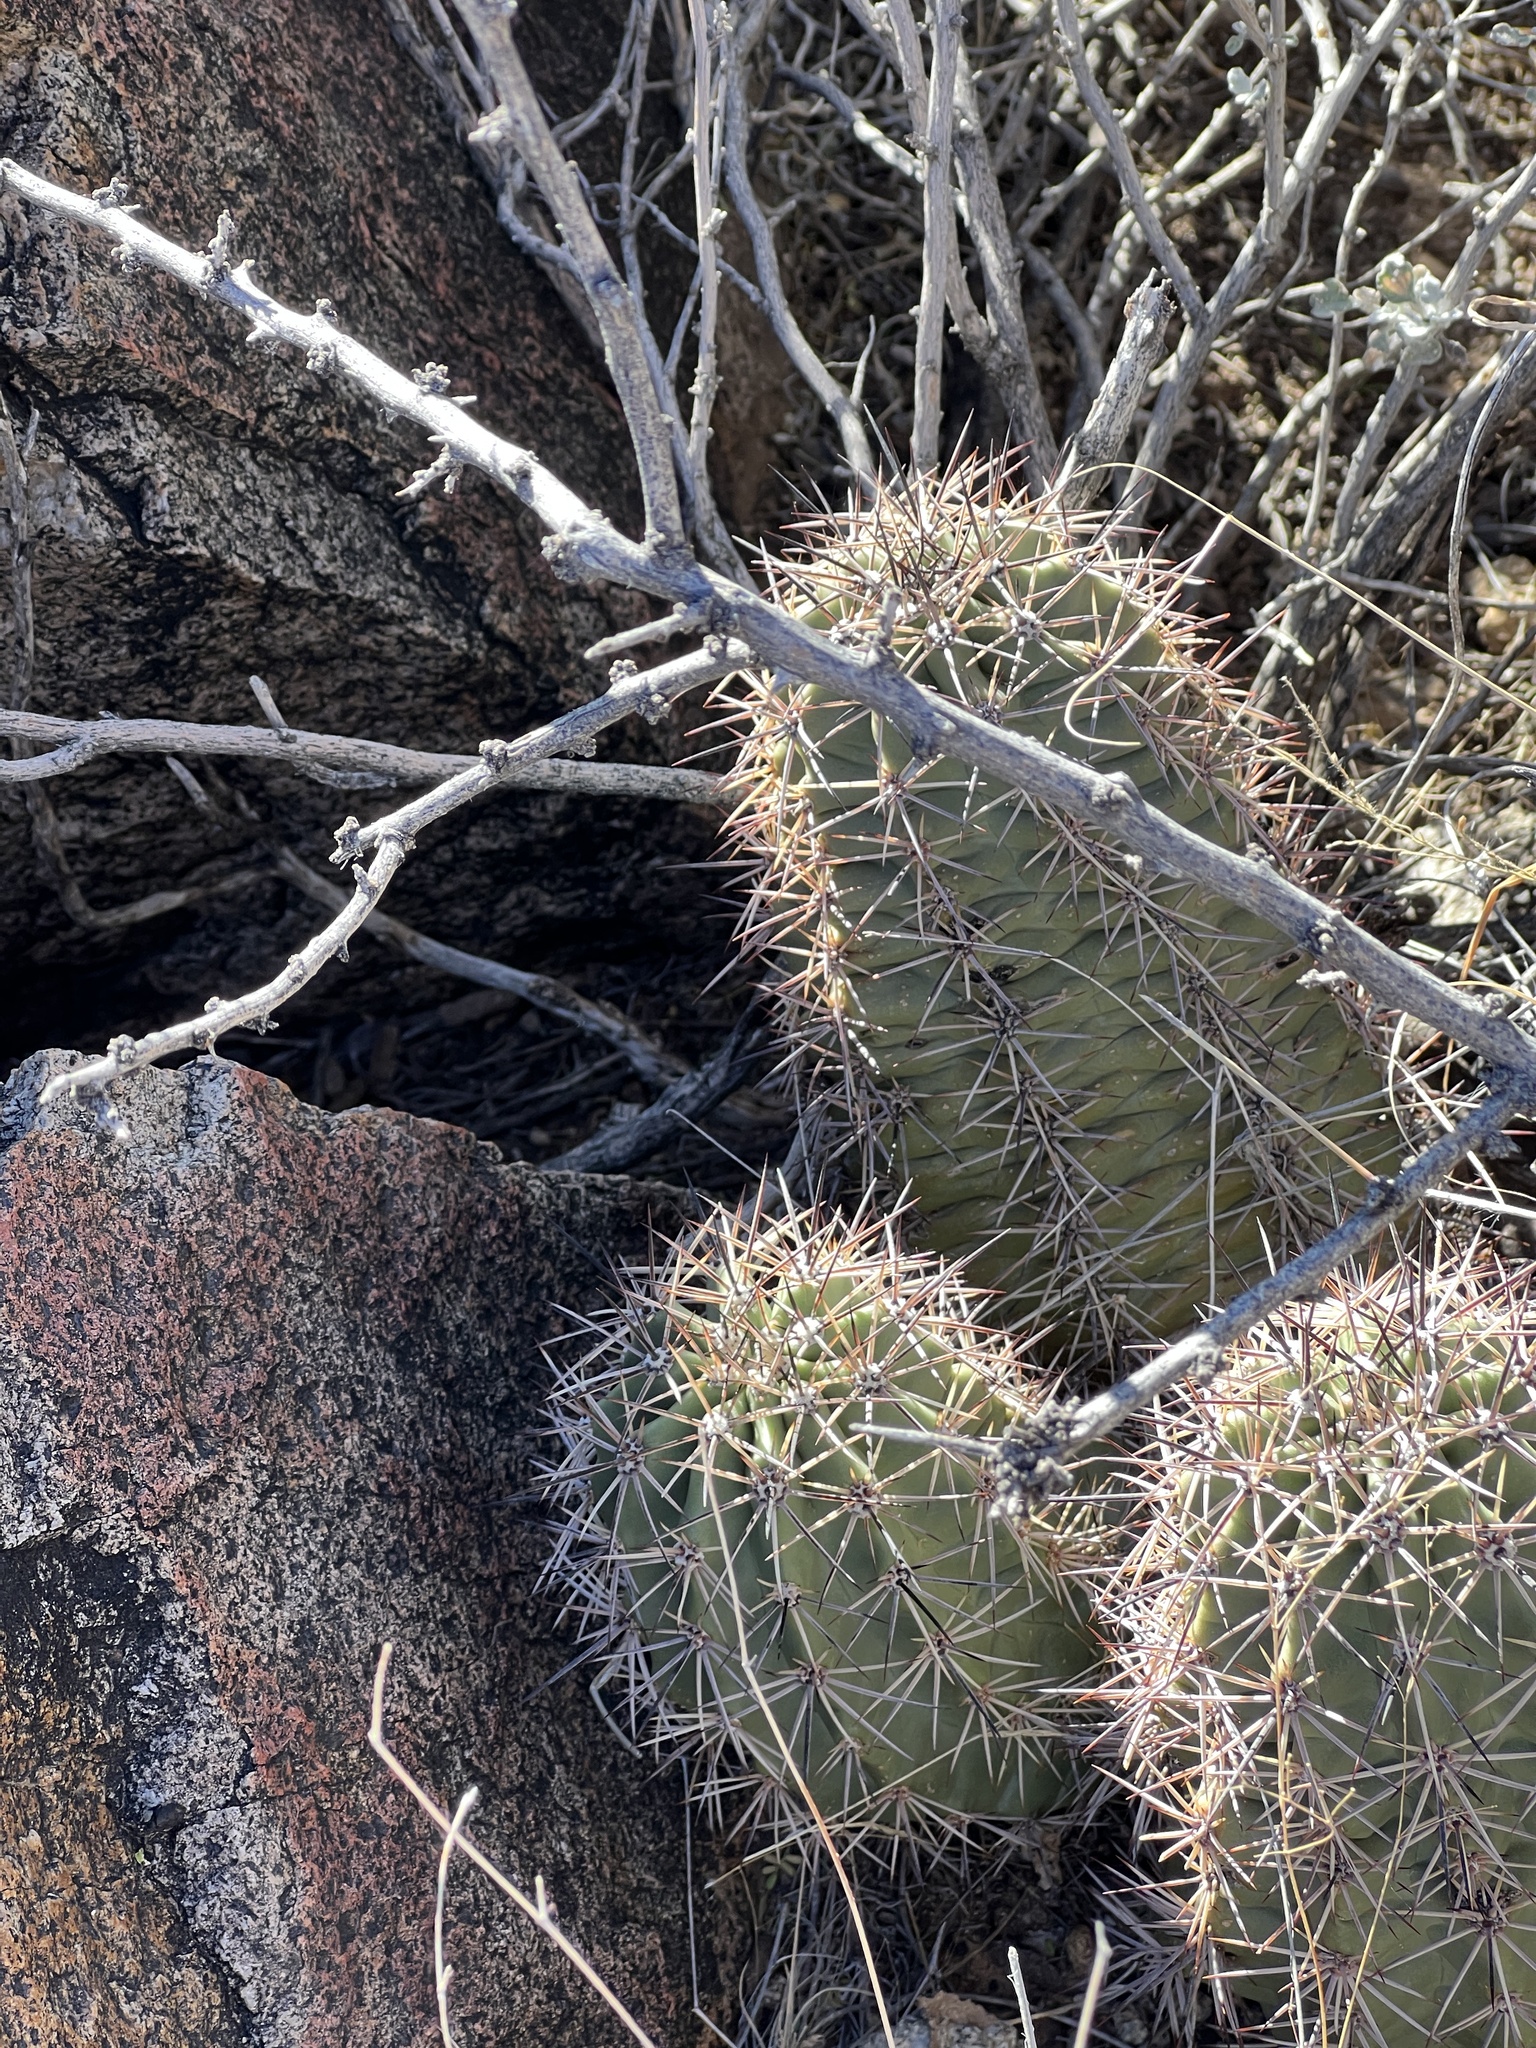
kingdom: Plantae
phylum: Tracheophyta
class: Magnoliopsida
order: Caryophyllales
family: Cactaceae
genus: Echinocereus
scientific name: Echinocereus coccineus
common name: Scarlet hedgehog cactus
